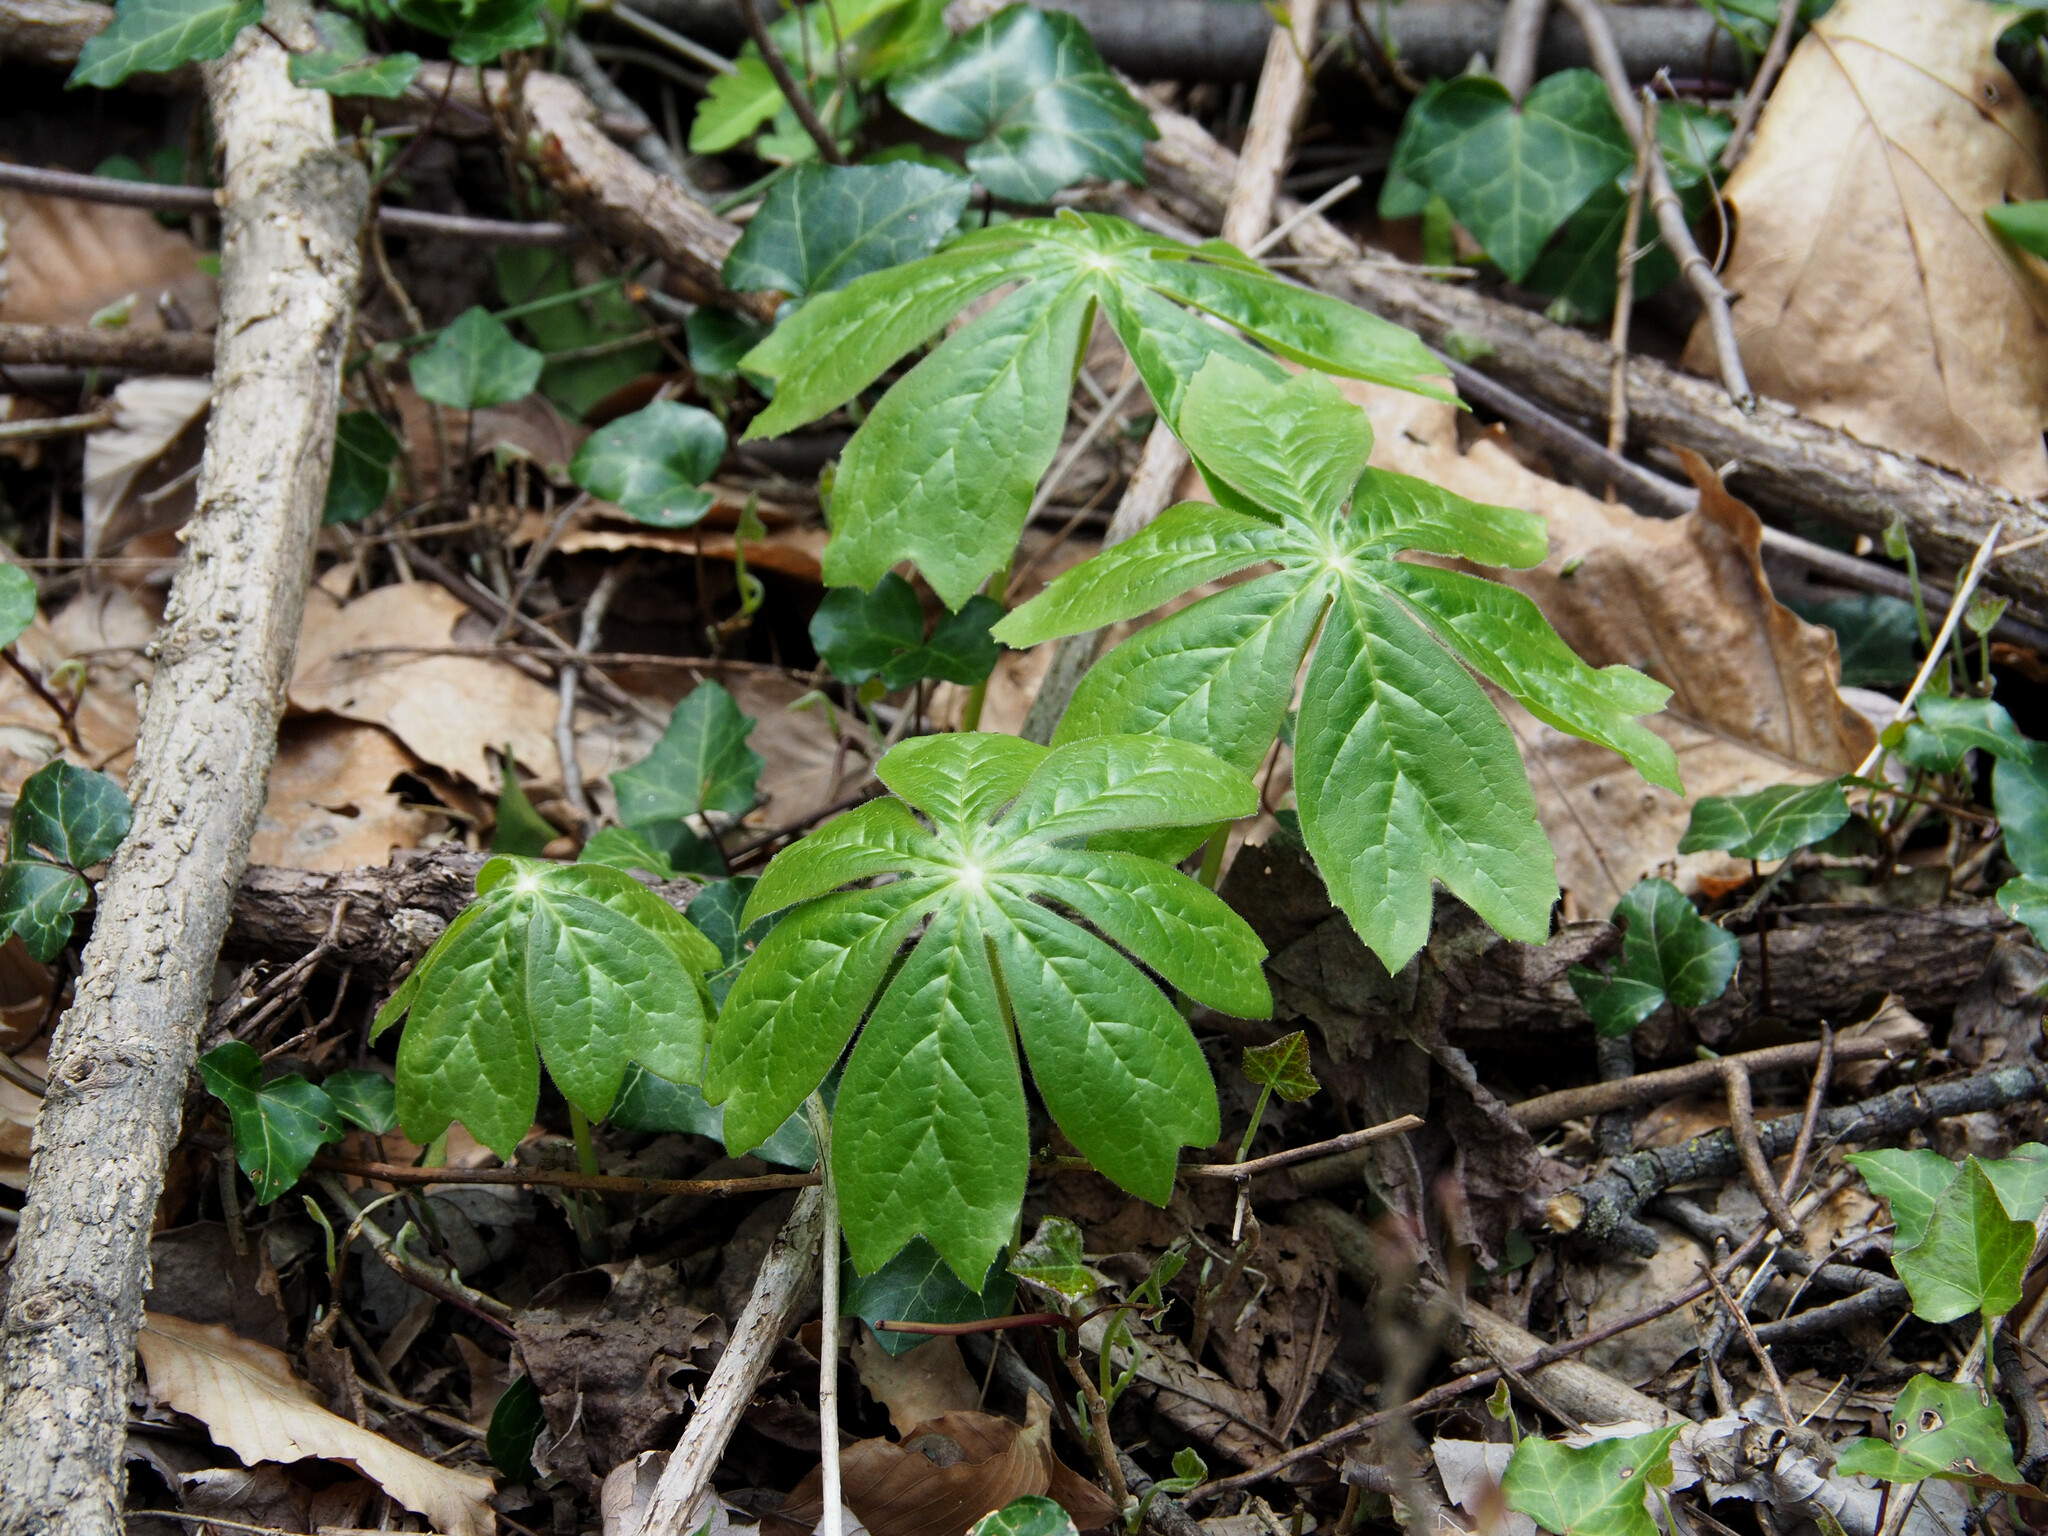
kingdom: Plantae
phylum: Tracheophyta
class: Magnoliopsida
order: Ranunculales
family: Berberidaceae
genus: Podophyllum
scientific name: Podophyllum peltatum
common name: Wild mandrake
